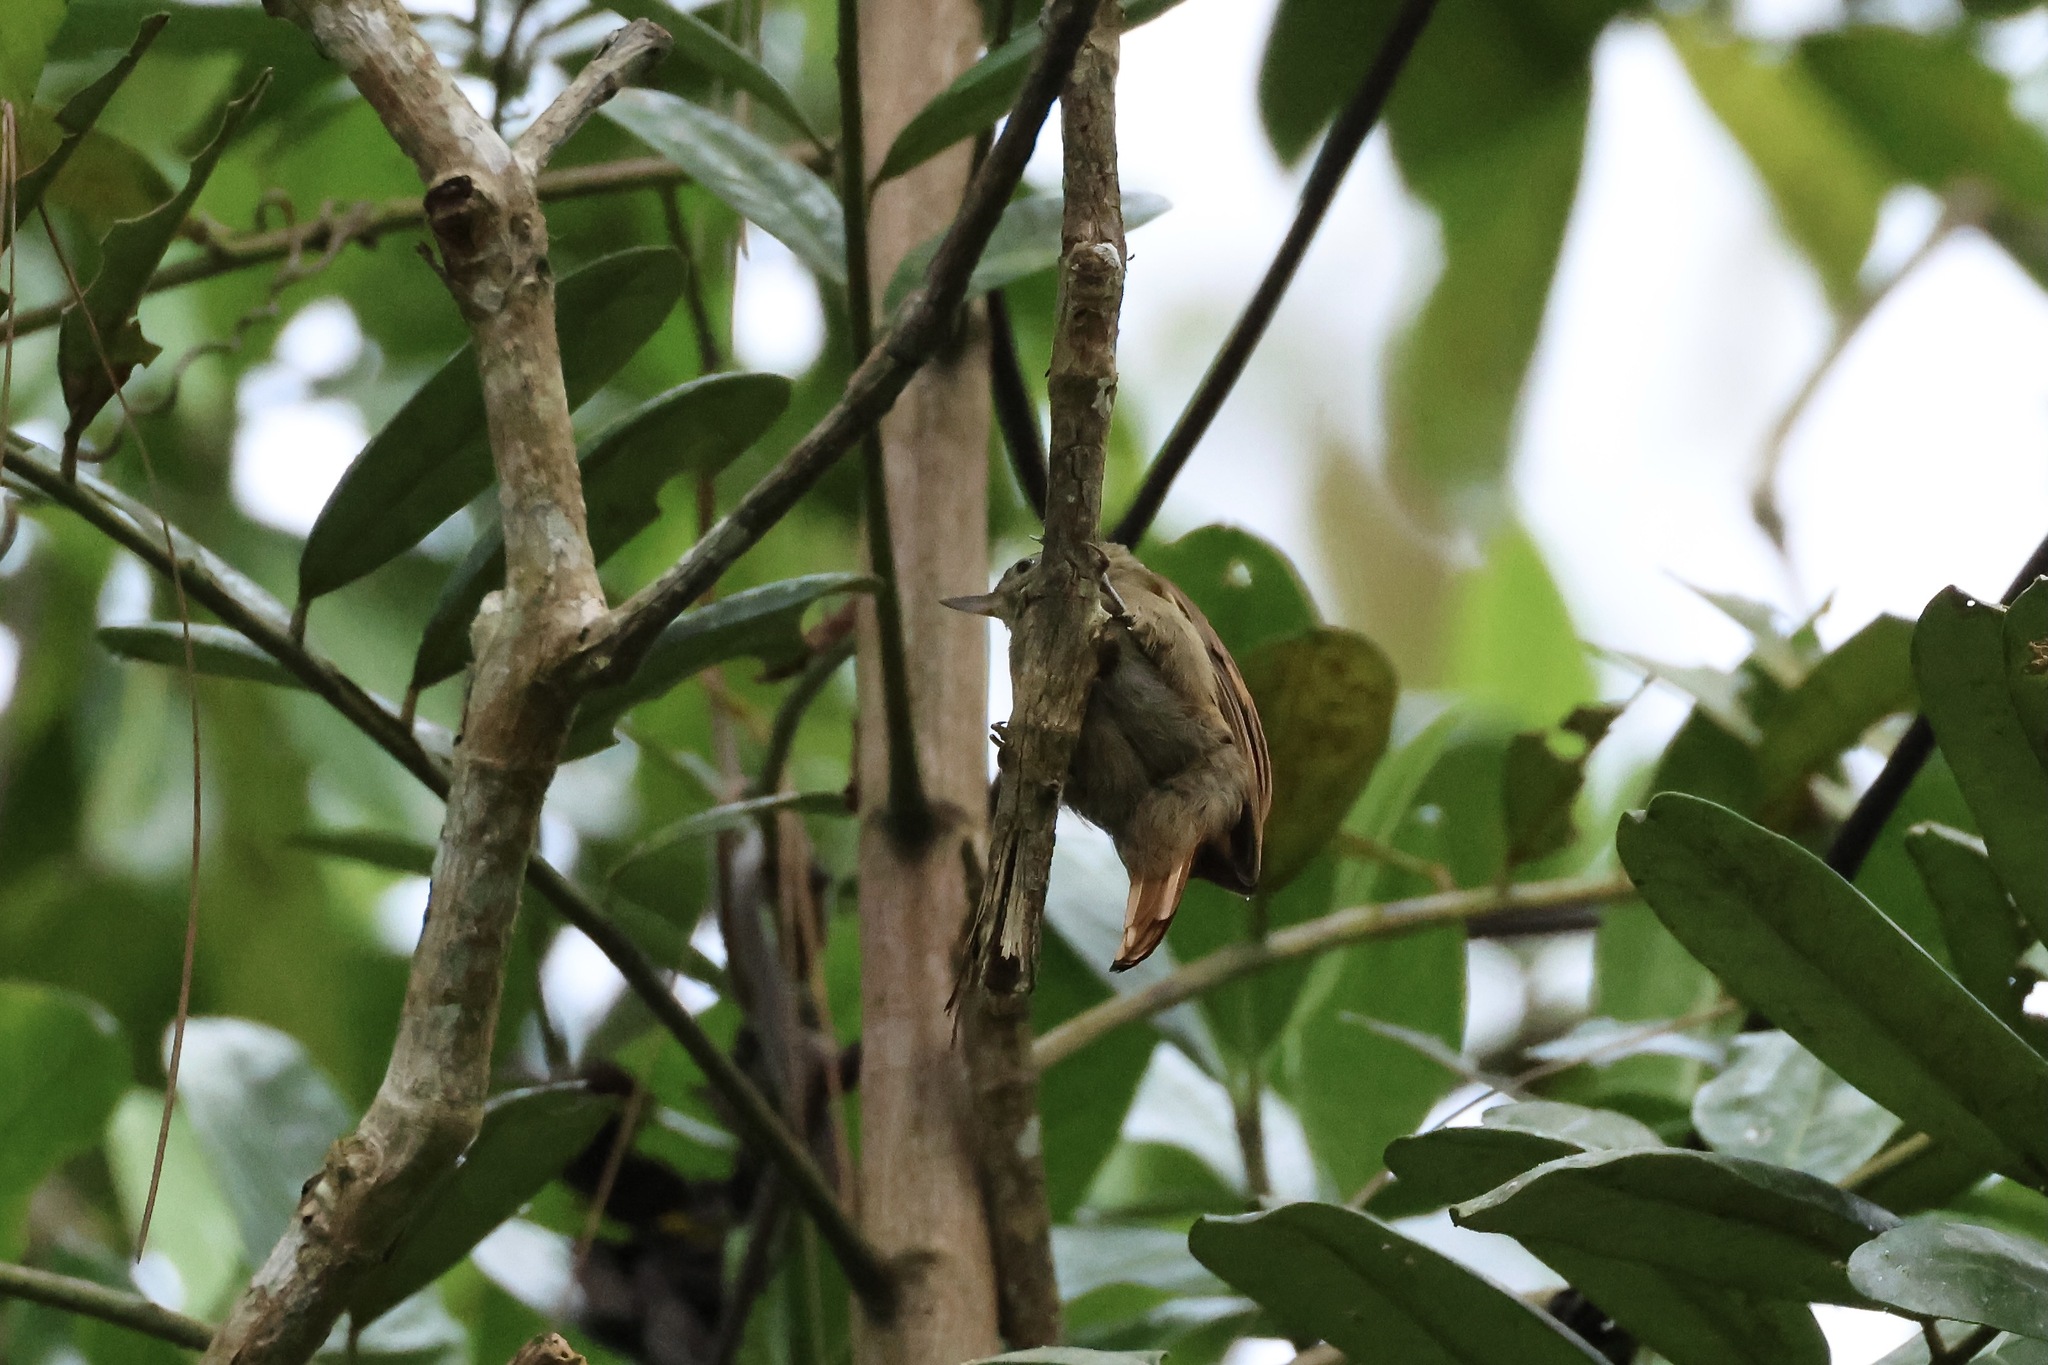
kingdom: Animalia
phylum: Chordata
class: Aves
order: Passeriformes
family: Furnariidae
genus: Xenops
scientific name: Xenops minutus
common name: Plain xenops
